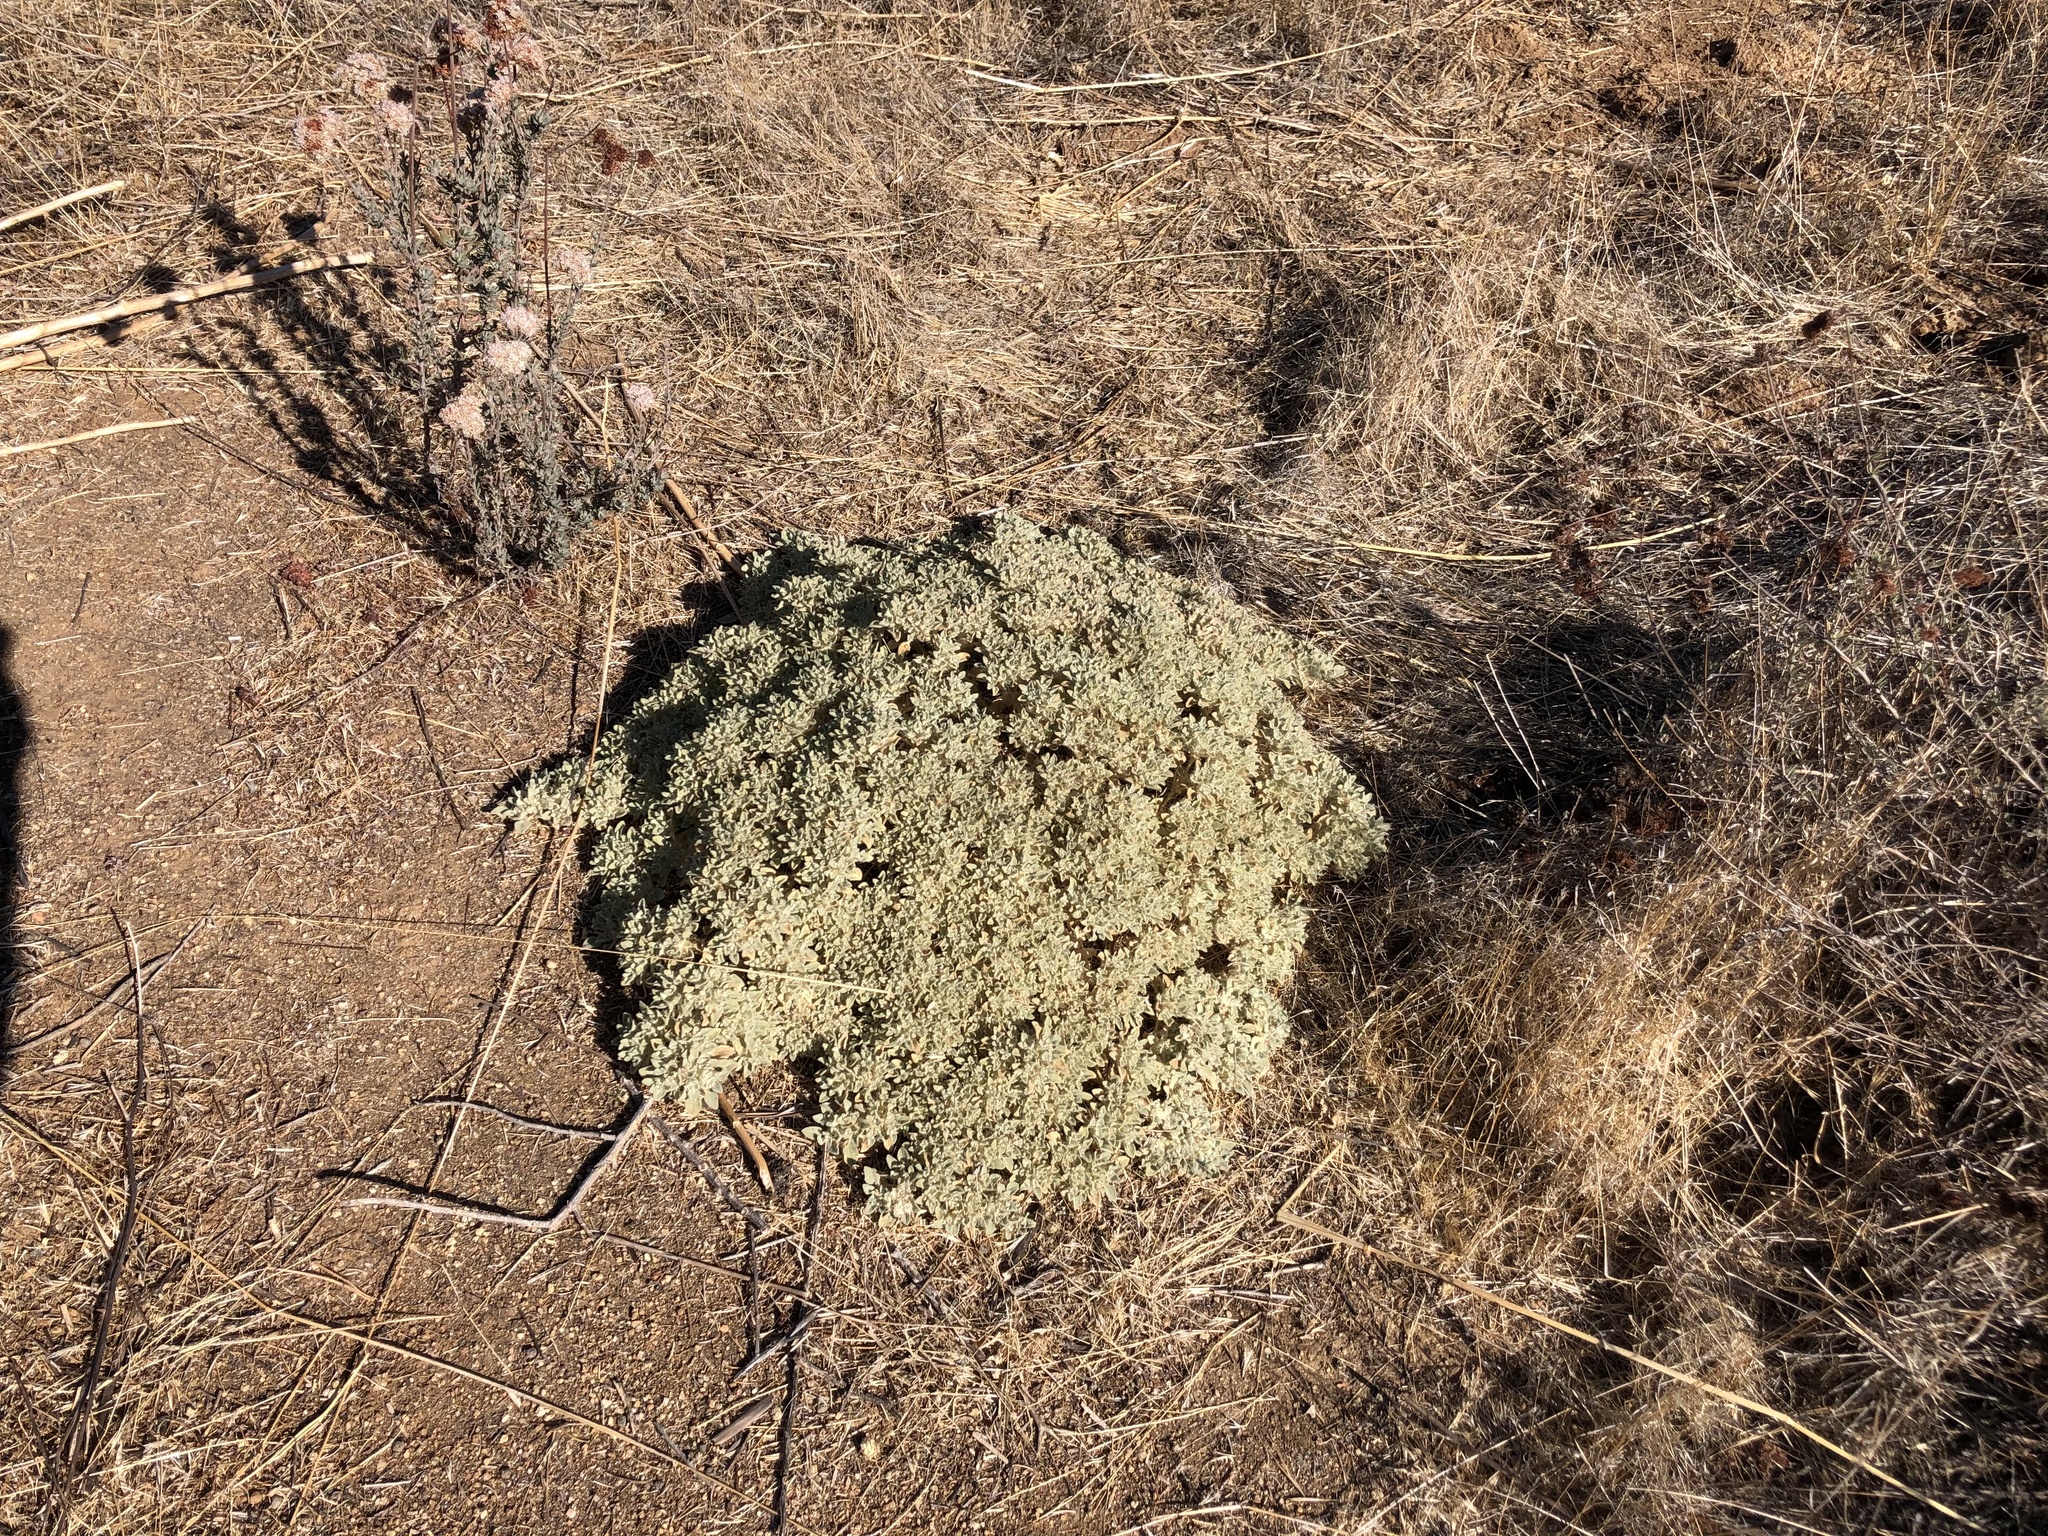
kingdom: Plantae
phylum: Tracheophyta
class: Magnoliopsida
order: Malpighiales
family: Euphorbiaceae
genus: Croton
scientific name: Croton setiger
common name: Dove weed
